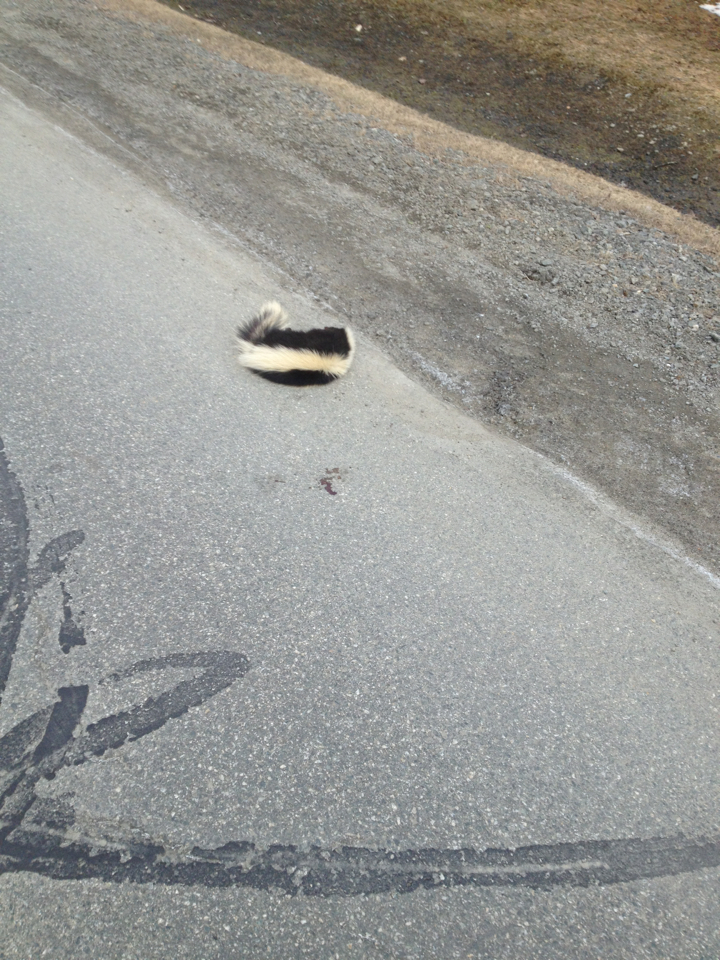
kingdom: Animalia
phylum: Chordata
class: Mammalia
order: Carnivora
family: Mephitidae
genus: Mephitis
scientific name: Mephitis mephitis
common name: Striped skunk
